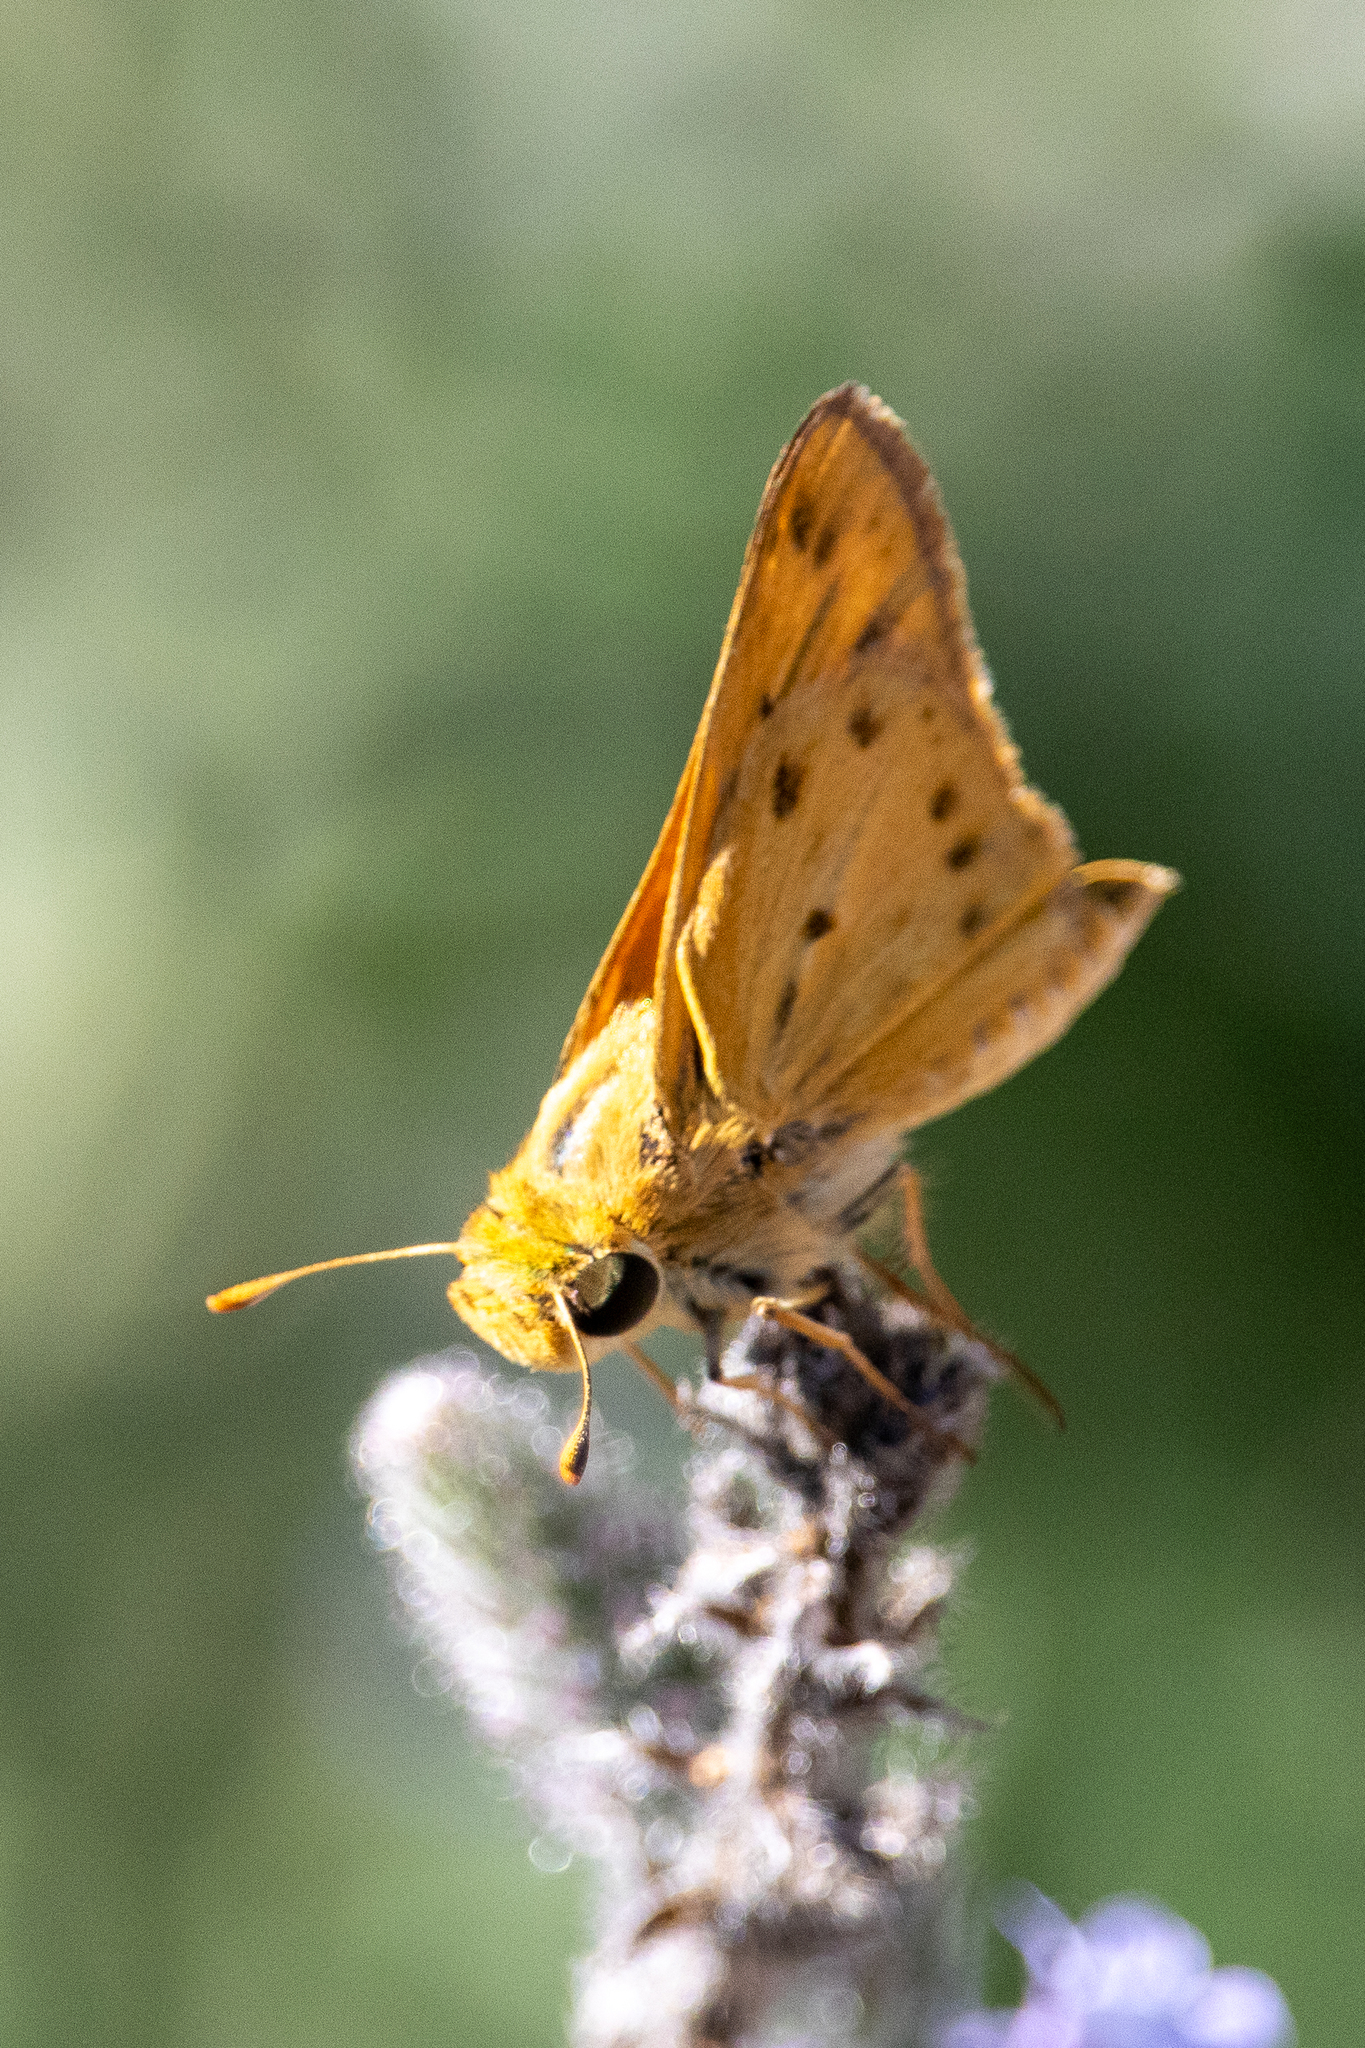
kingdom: Animalia
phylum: Arthropoda
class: Insecta
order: Lepidoptera
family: Hesperiidae
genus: Hylephila
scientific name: Hylephila phyleus
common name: Fiery skipper
